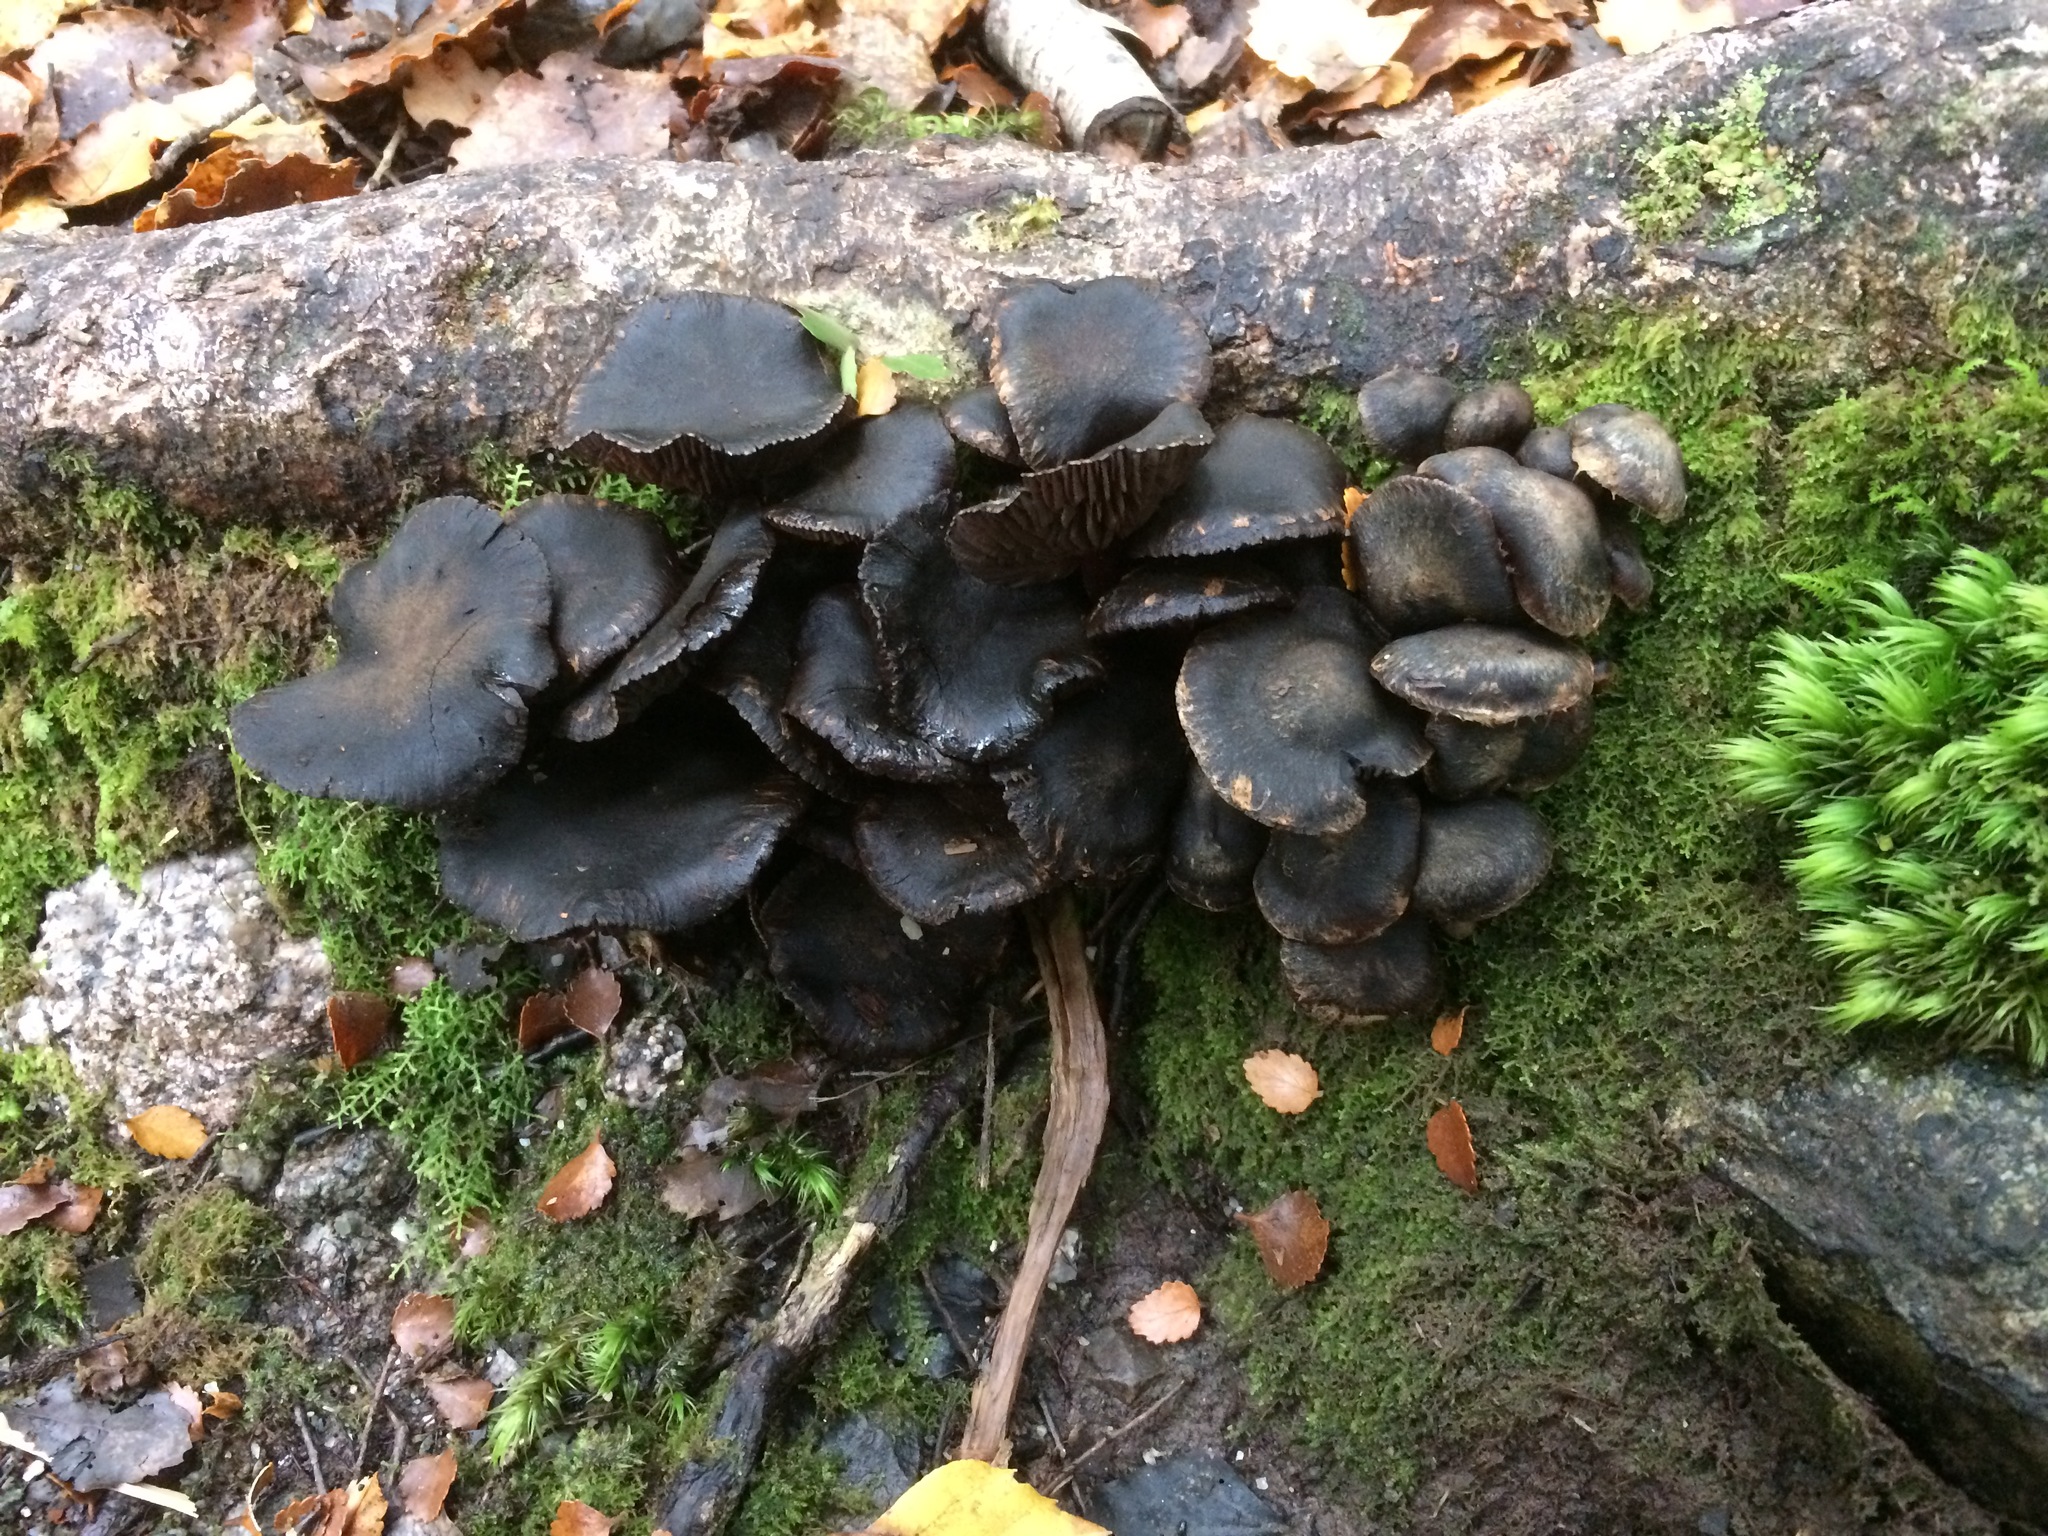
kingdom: Fungi
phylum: Basidiomycota
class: Agaricomycetes
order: Agaricales
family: Lyophyllaceae
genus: Lyophyllum
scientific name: Lyophyllum
